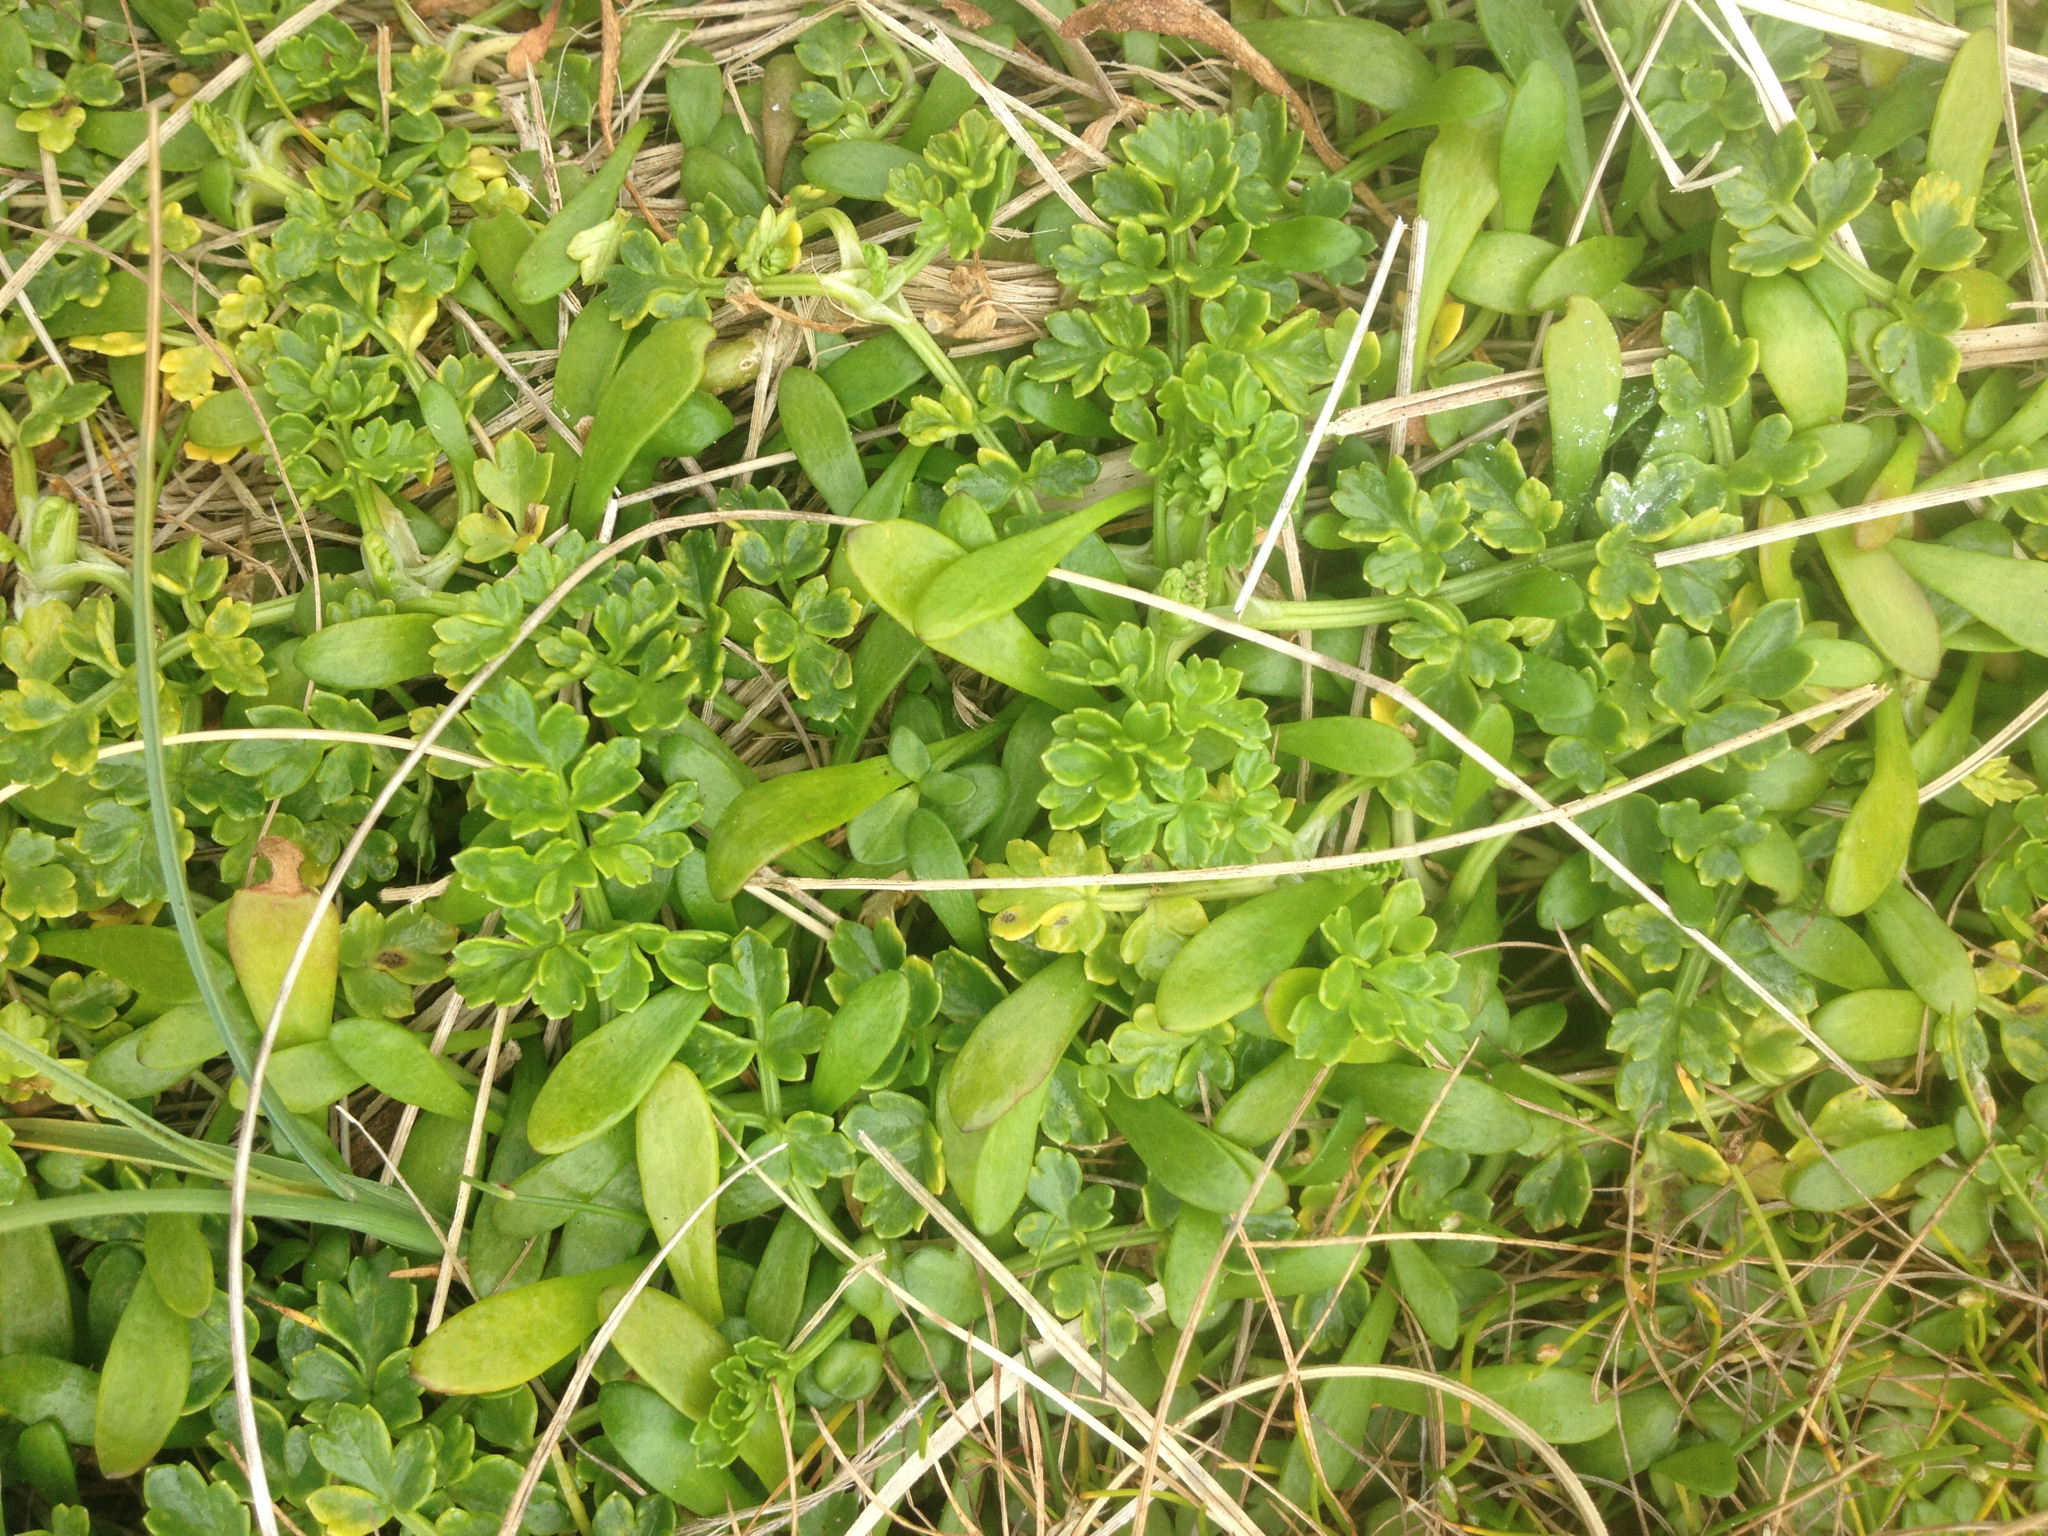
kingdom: Plantae
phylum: Tracheophyta
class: Magnoliopsida
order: Apiales
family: Apiaceae
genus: Apium
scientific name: Apium prostratum
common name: Prostrate marshwort
